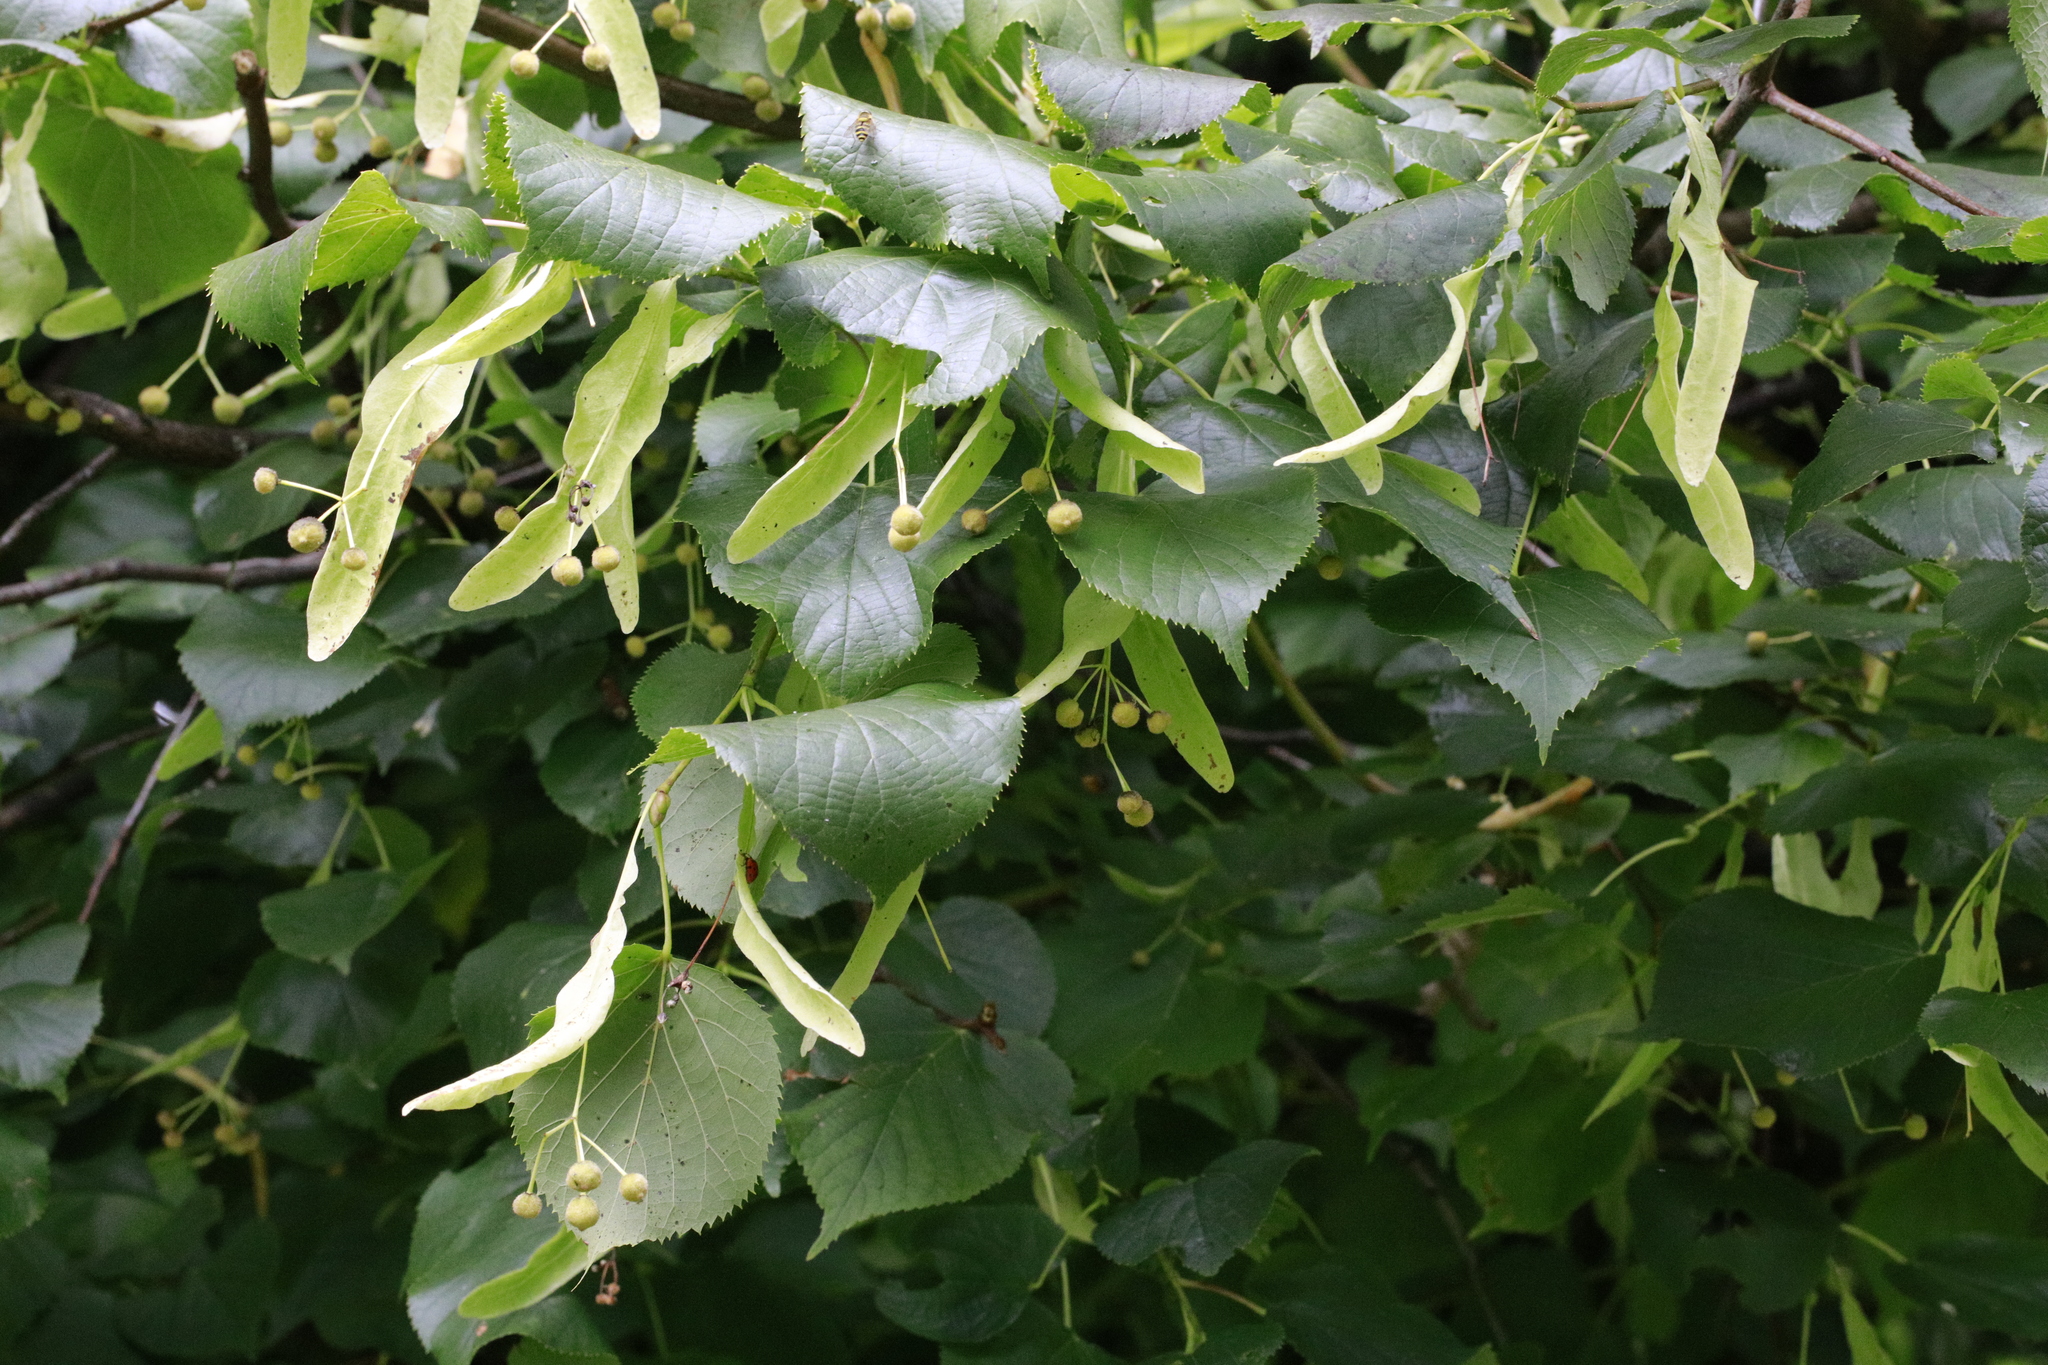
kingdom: Plantae
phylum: Tracheophyta
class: Magnoliopsida
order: Malvales
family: Malvaceae
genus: Tilia
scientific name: Tilia europaea
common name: European linden
